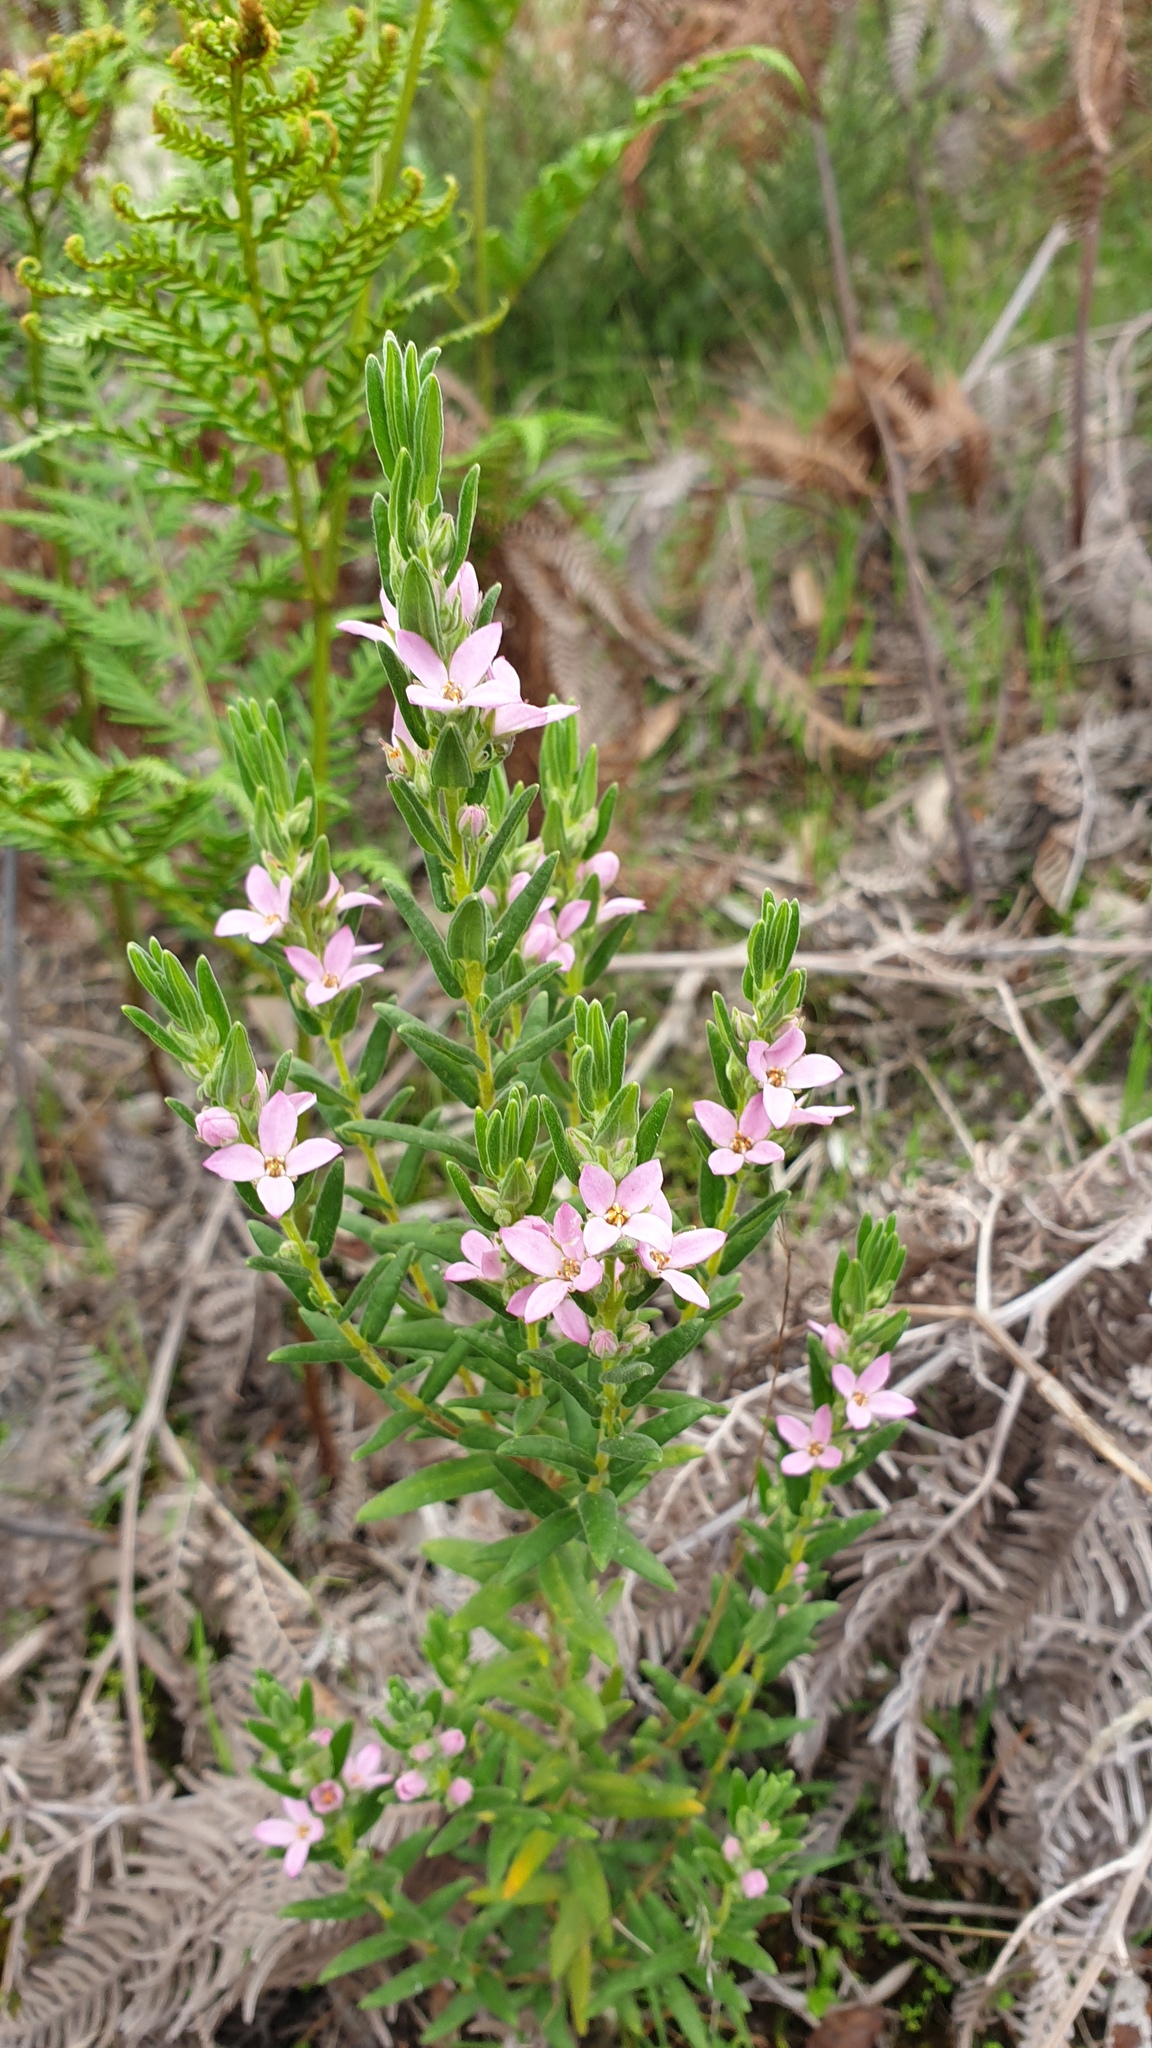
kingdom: Plantae
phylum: Tracheophyta
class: Magnoliopsida
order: Sapindales
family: Rutaceae
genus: Zieria
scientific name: Zieria veronicea
